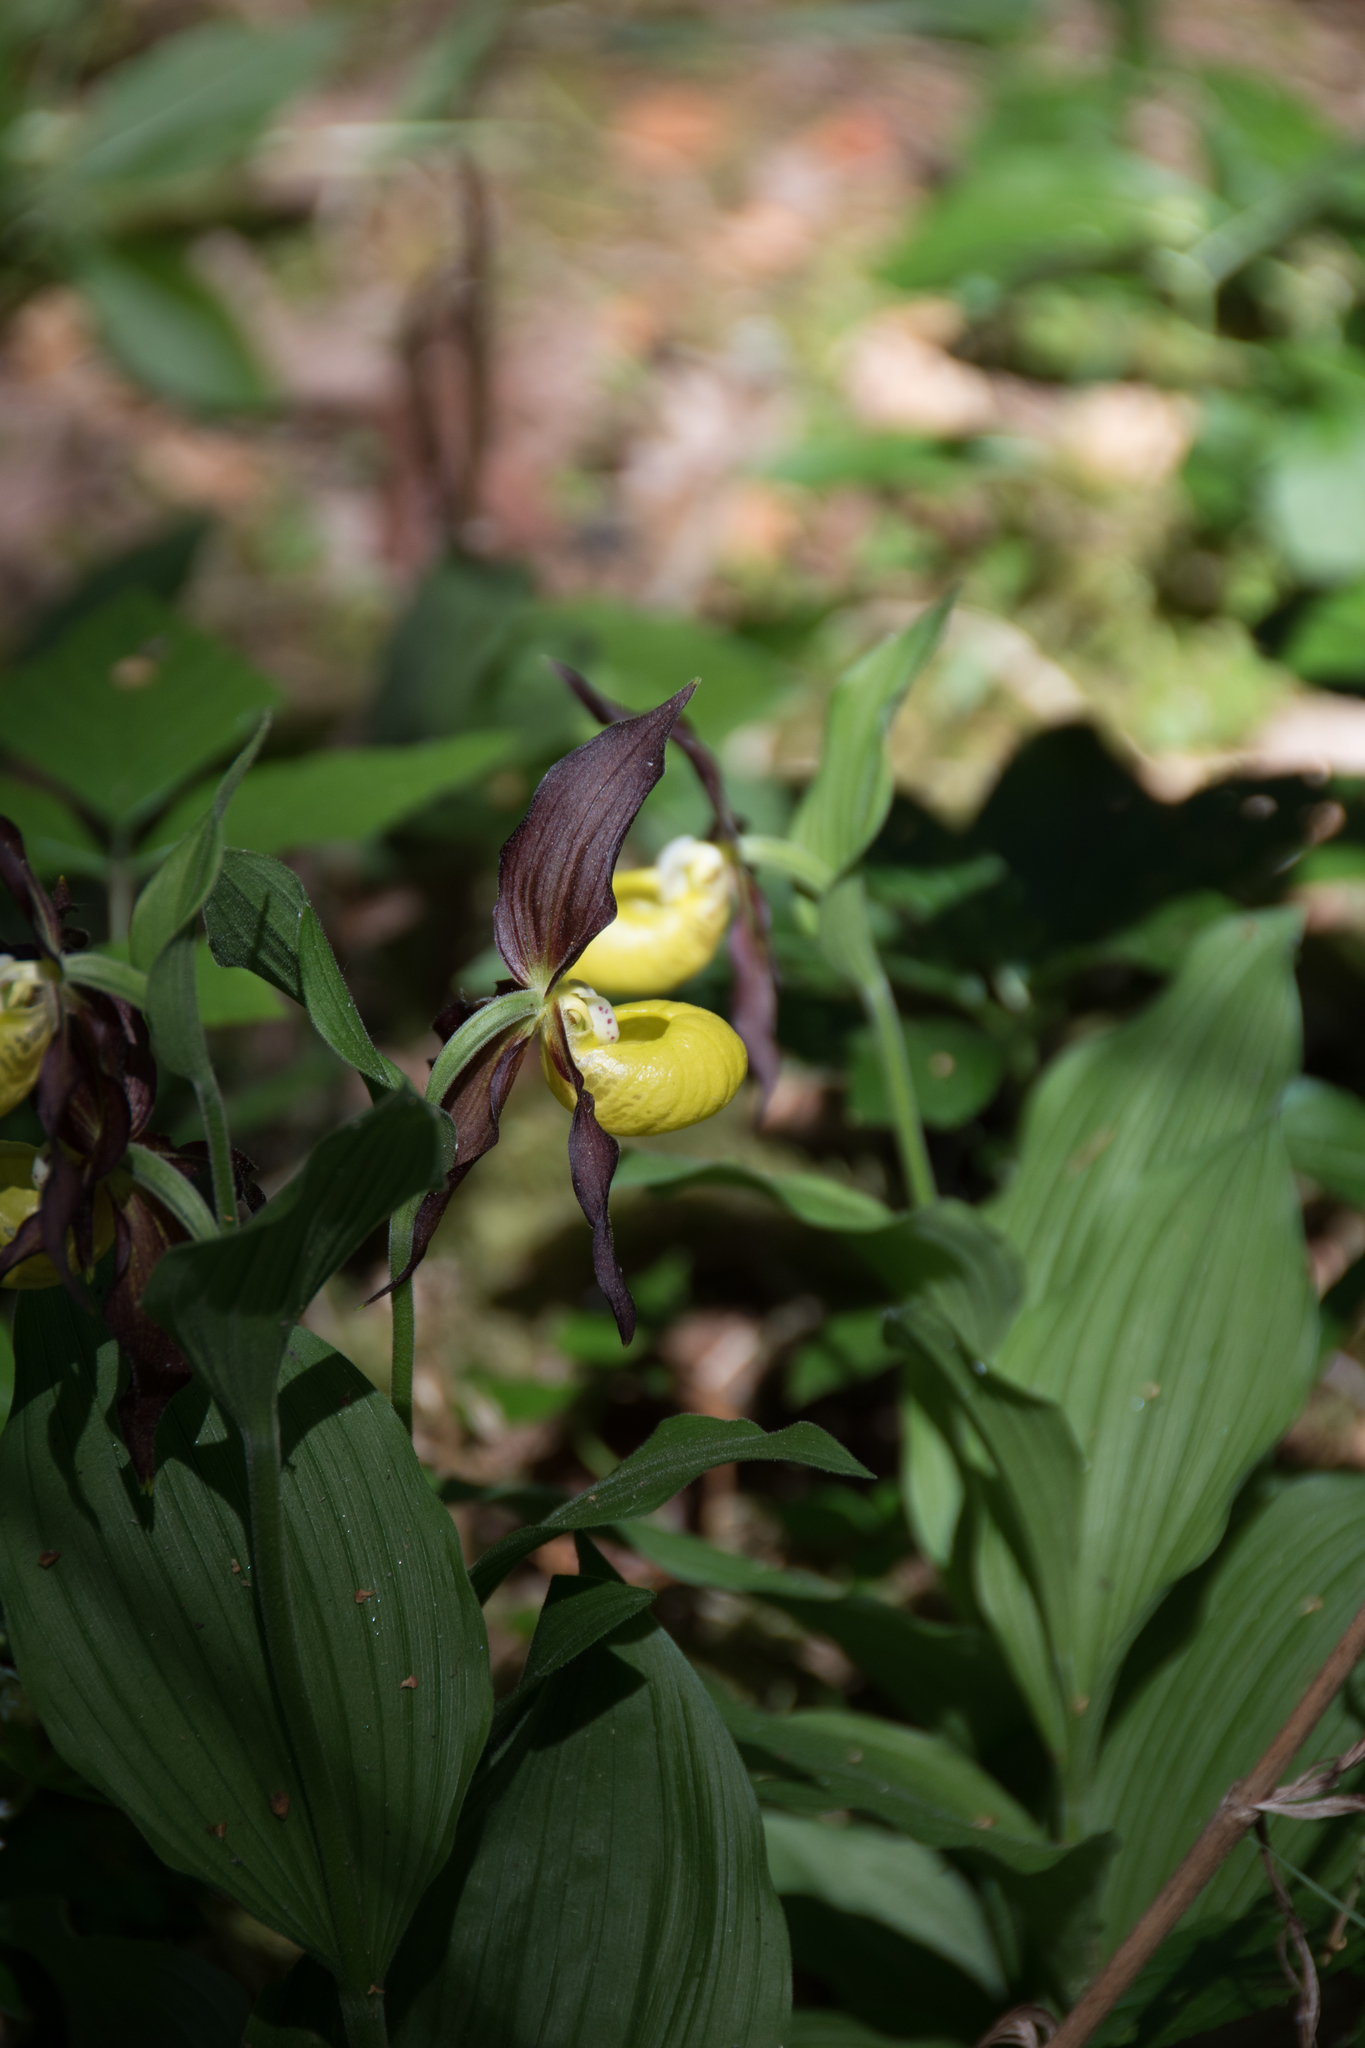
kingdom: Plantae
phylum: Tracheophyta
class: Liliopsida
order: Asparagales
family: Orchidaceae
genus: Cypripedium
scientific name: Cypripedium calceolus
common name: Lady's-slipper
